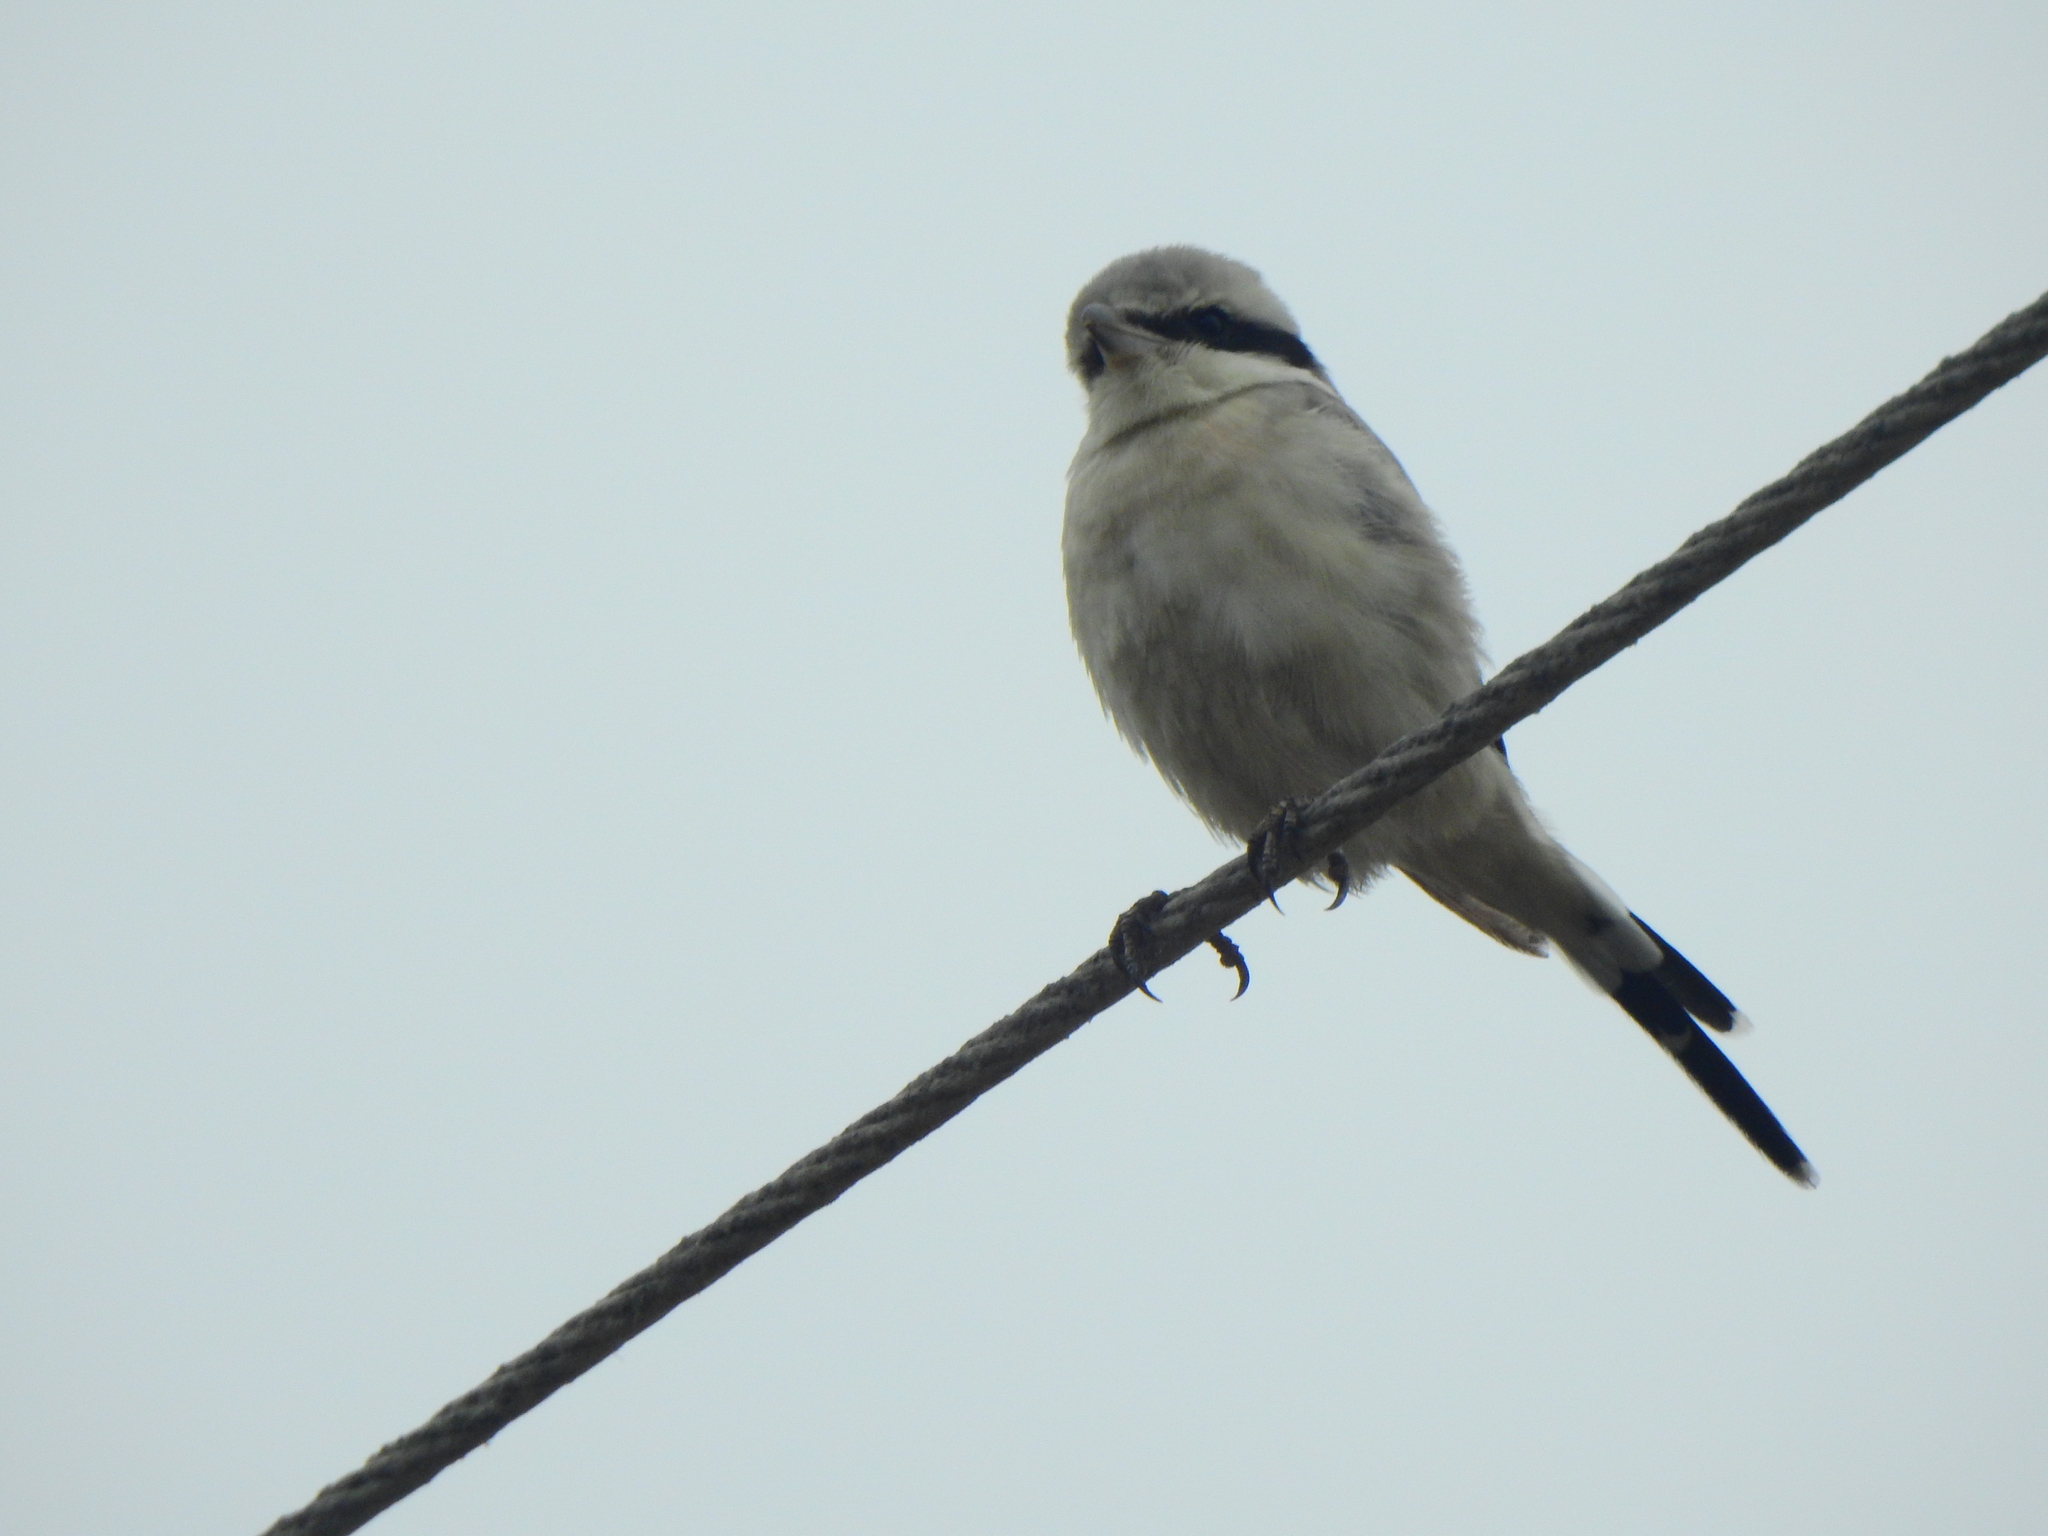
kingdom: Animalia
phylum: Chordata
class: Aves
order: Passeriformes
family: Laniidae
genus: Lanius
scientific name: Lanius excubitor
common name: Great grey shrike
